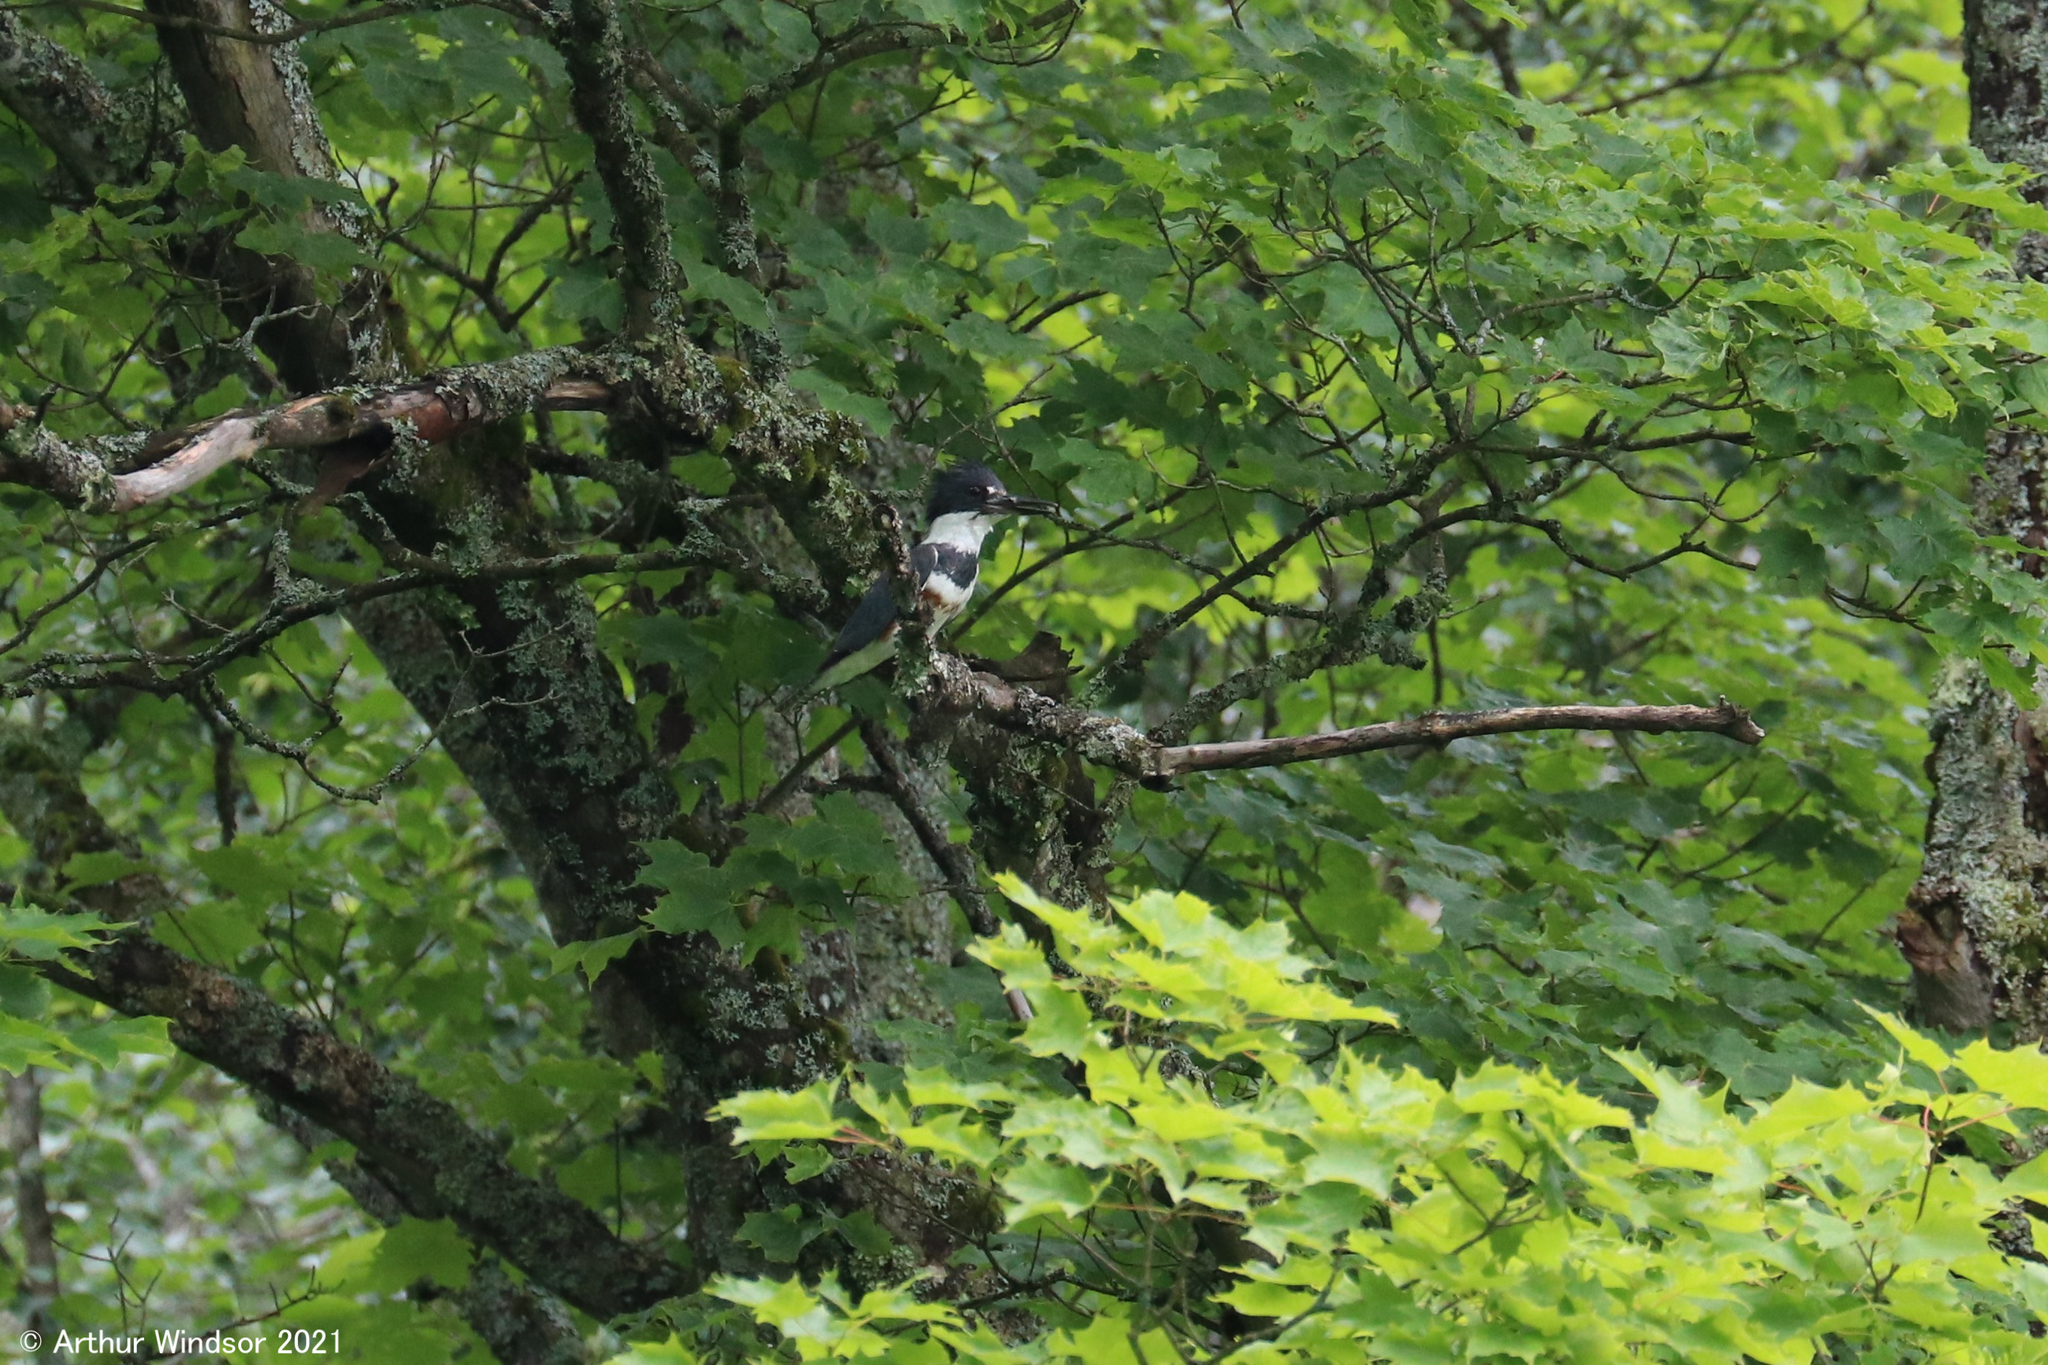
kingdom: Animalia
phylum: Chordata
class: Aves
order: Coraciiformes
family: Alcedinidae
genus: Megaceryle
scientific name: Megaceryle alcyon
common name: Belted kingfisher
